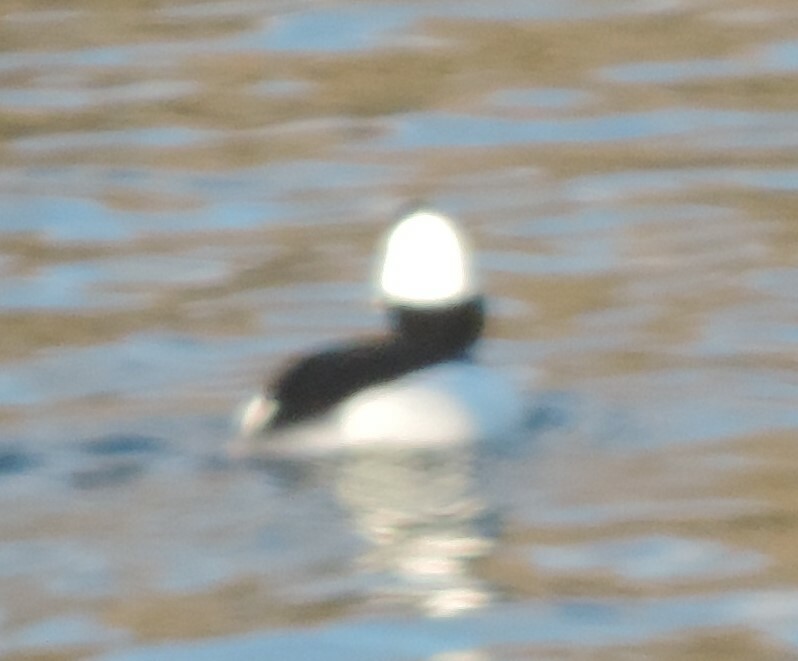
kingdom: Animalia
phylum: Chordata
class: Aves
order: Anseriformes
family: Anatidae
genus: Bucephala
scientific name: Bucephala albeola
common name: Bufflehead
